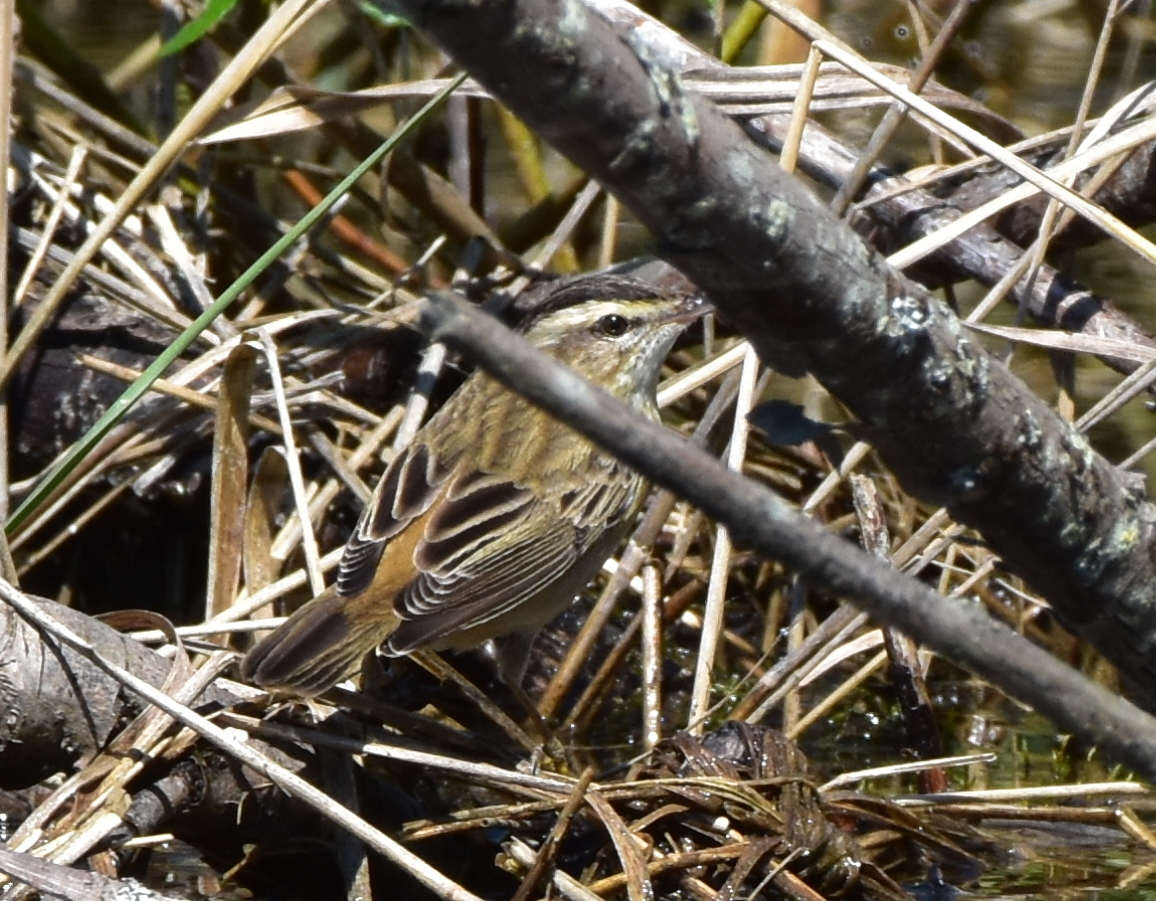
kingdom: Animalia
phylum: Chordata
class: Aves
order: Passeriformes
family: Acrocephalidae
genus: Acrocephalus
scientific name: Acrocephalus schoenobaenus
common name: Sedge warbler
